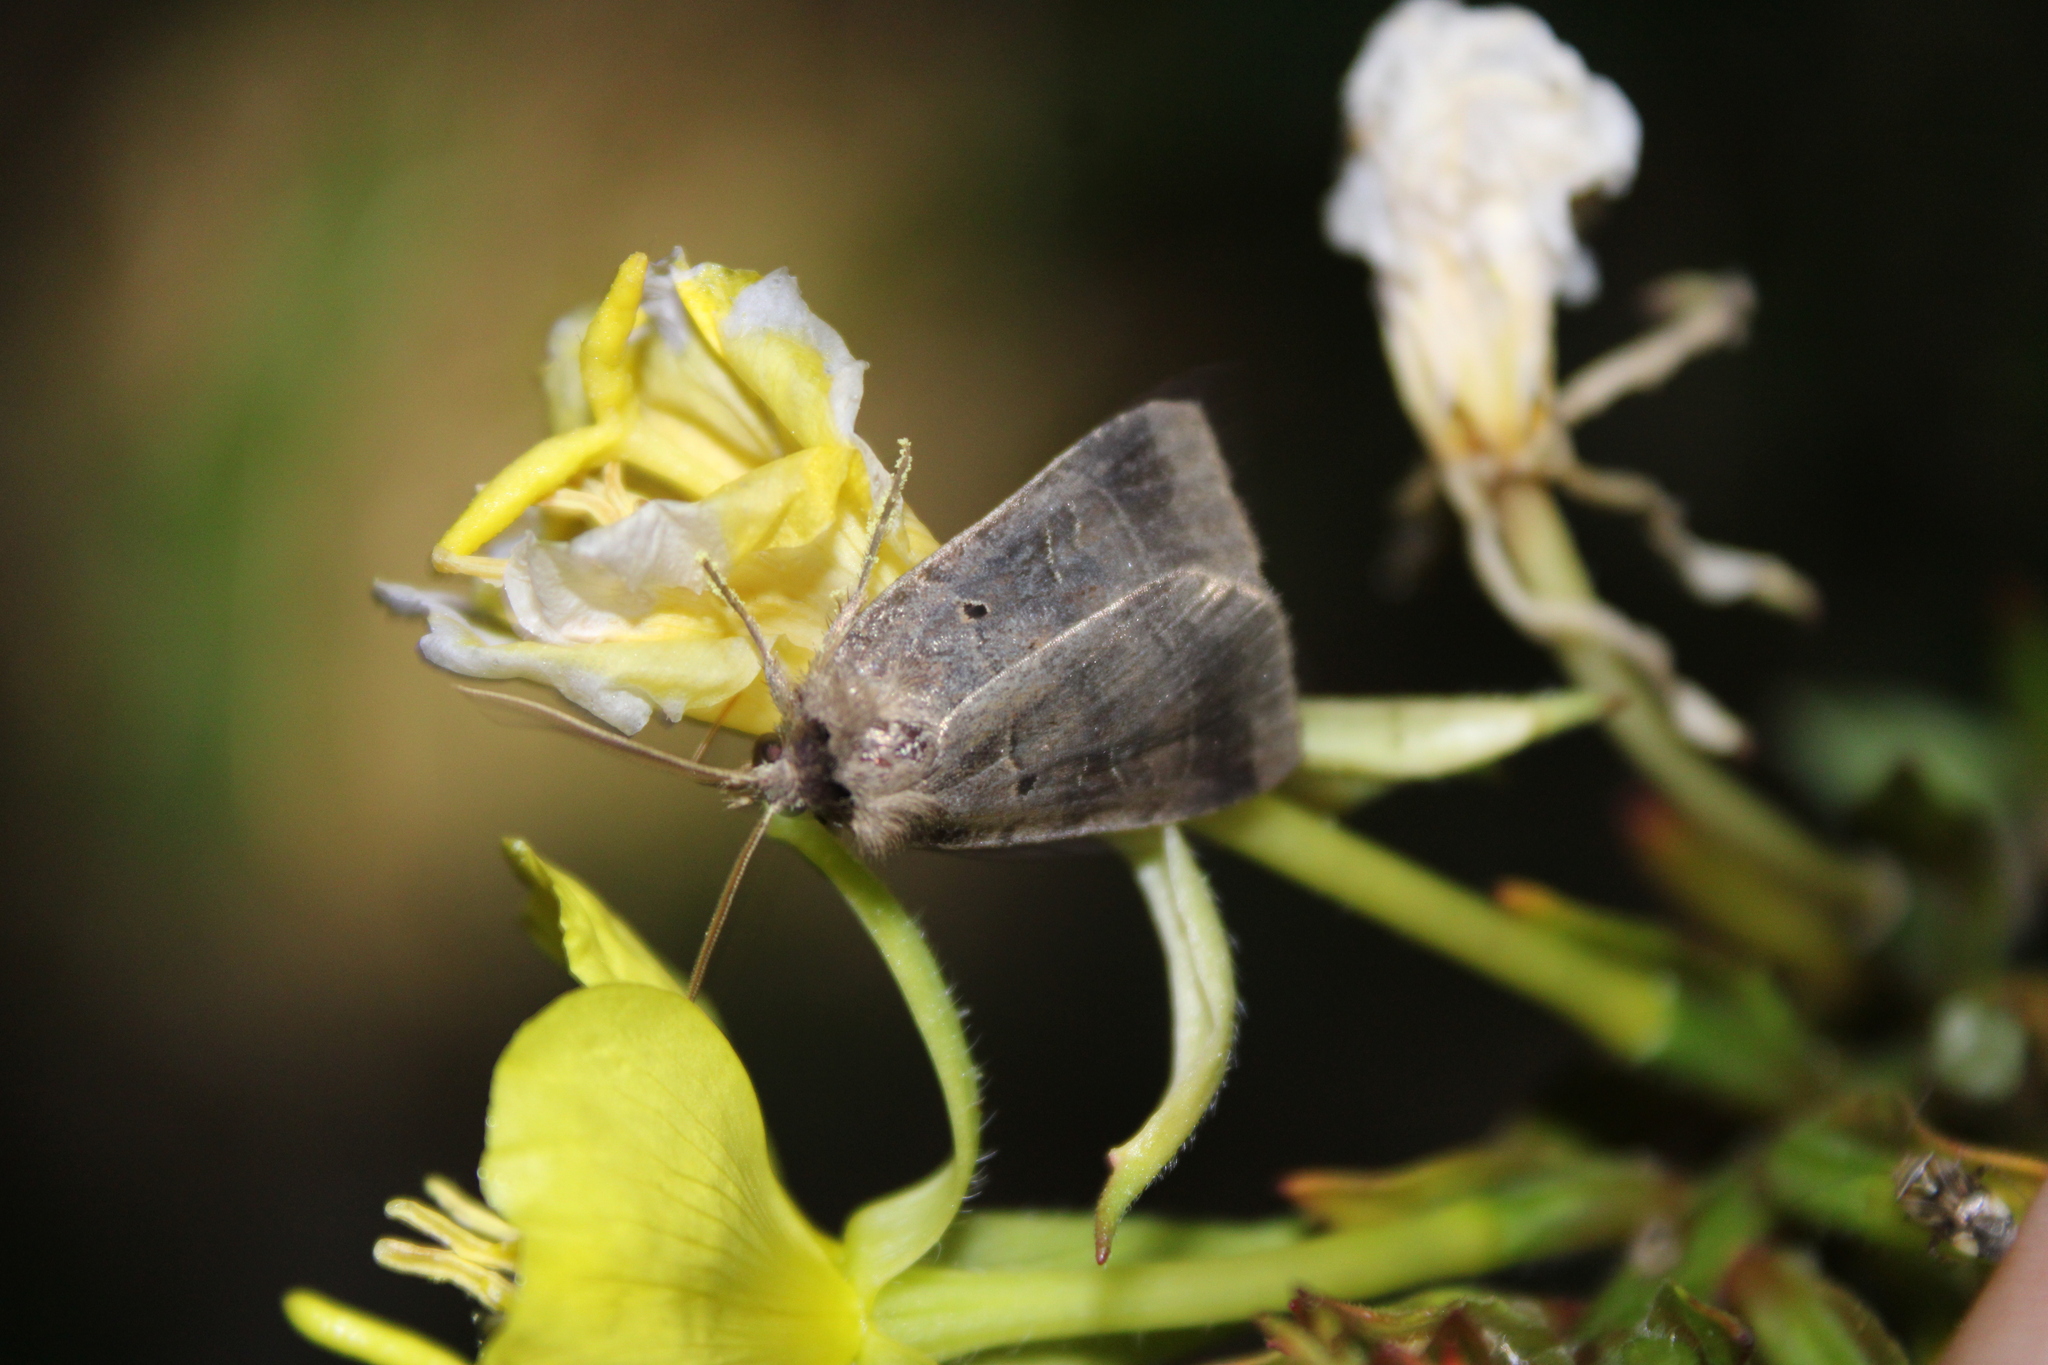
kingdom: Animalia
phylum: Arthropoda
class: Insecta
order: Lepidoptera
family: Noctuidae
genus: Agnorisma
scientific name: Agnorisma badinodis
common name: Pale-banded dart
